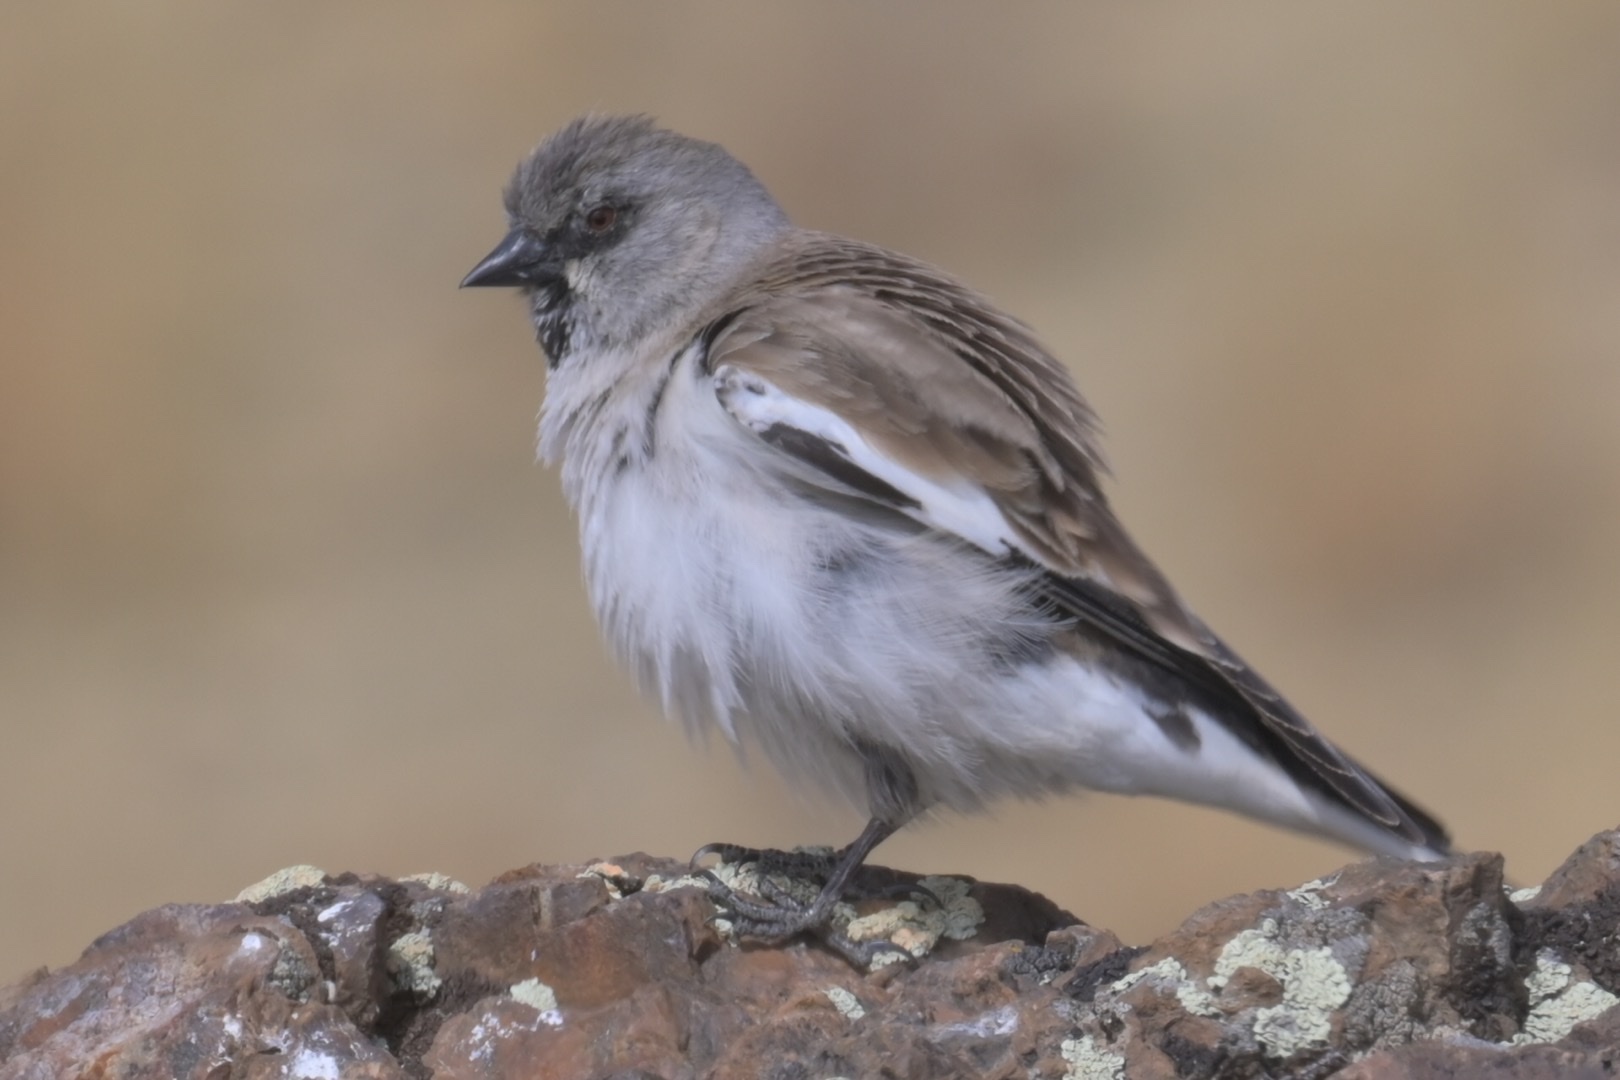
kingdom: Animalia
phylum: Chordata
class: Aves
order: Passeriformes
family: Passeridae
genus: Montifringilla
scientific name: Montifringilla nivalis
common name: White-winged snowfinch
